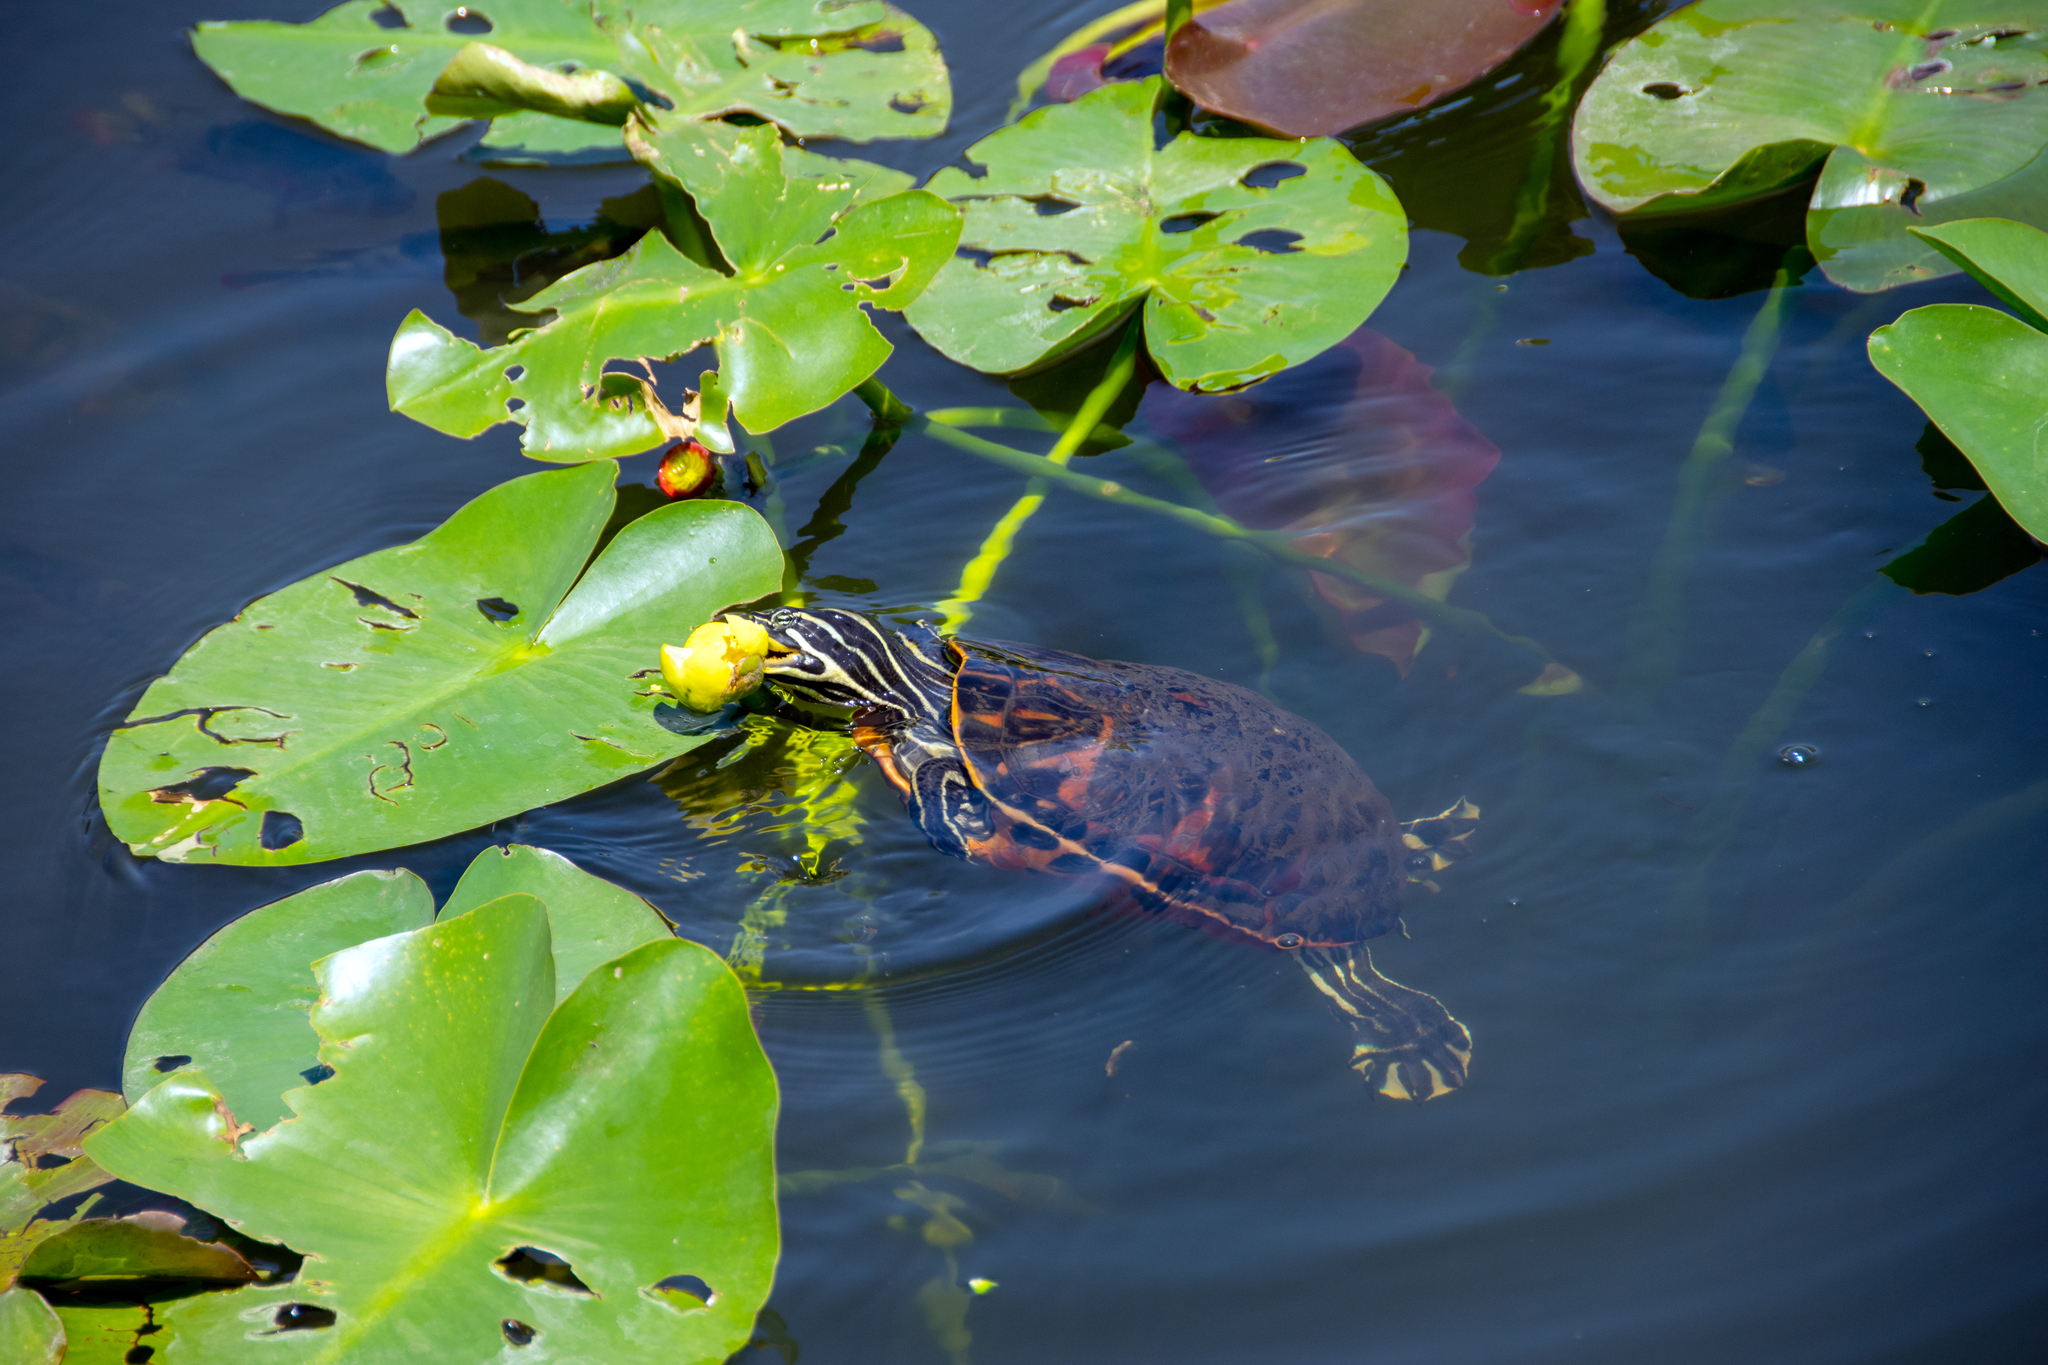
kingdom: Animalia
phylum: Chordata
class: Testudines
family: Emydidae
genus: Pseudemys
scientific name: Pseudemys nelsoni
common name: Florida red-bellied turtle
